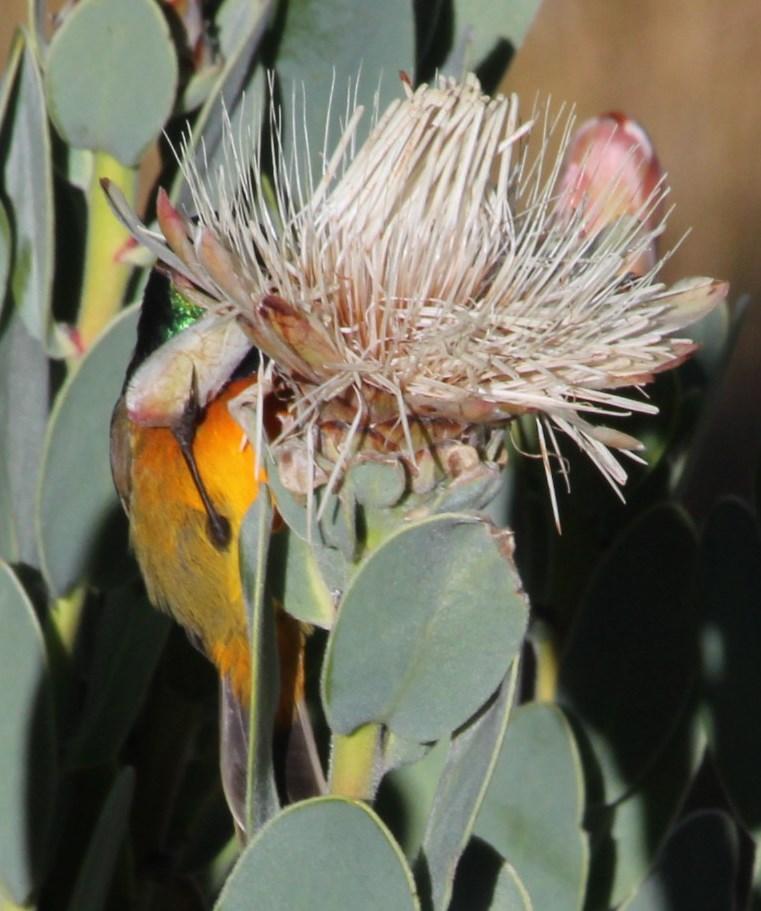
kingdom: Animalia
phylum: Chordata
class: Aves
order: Passeriformes
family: Nectariniidae
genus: Anthobaphes
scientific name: Anthobaphes violacea
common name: Orange-breasted sunbird
